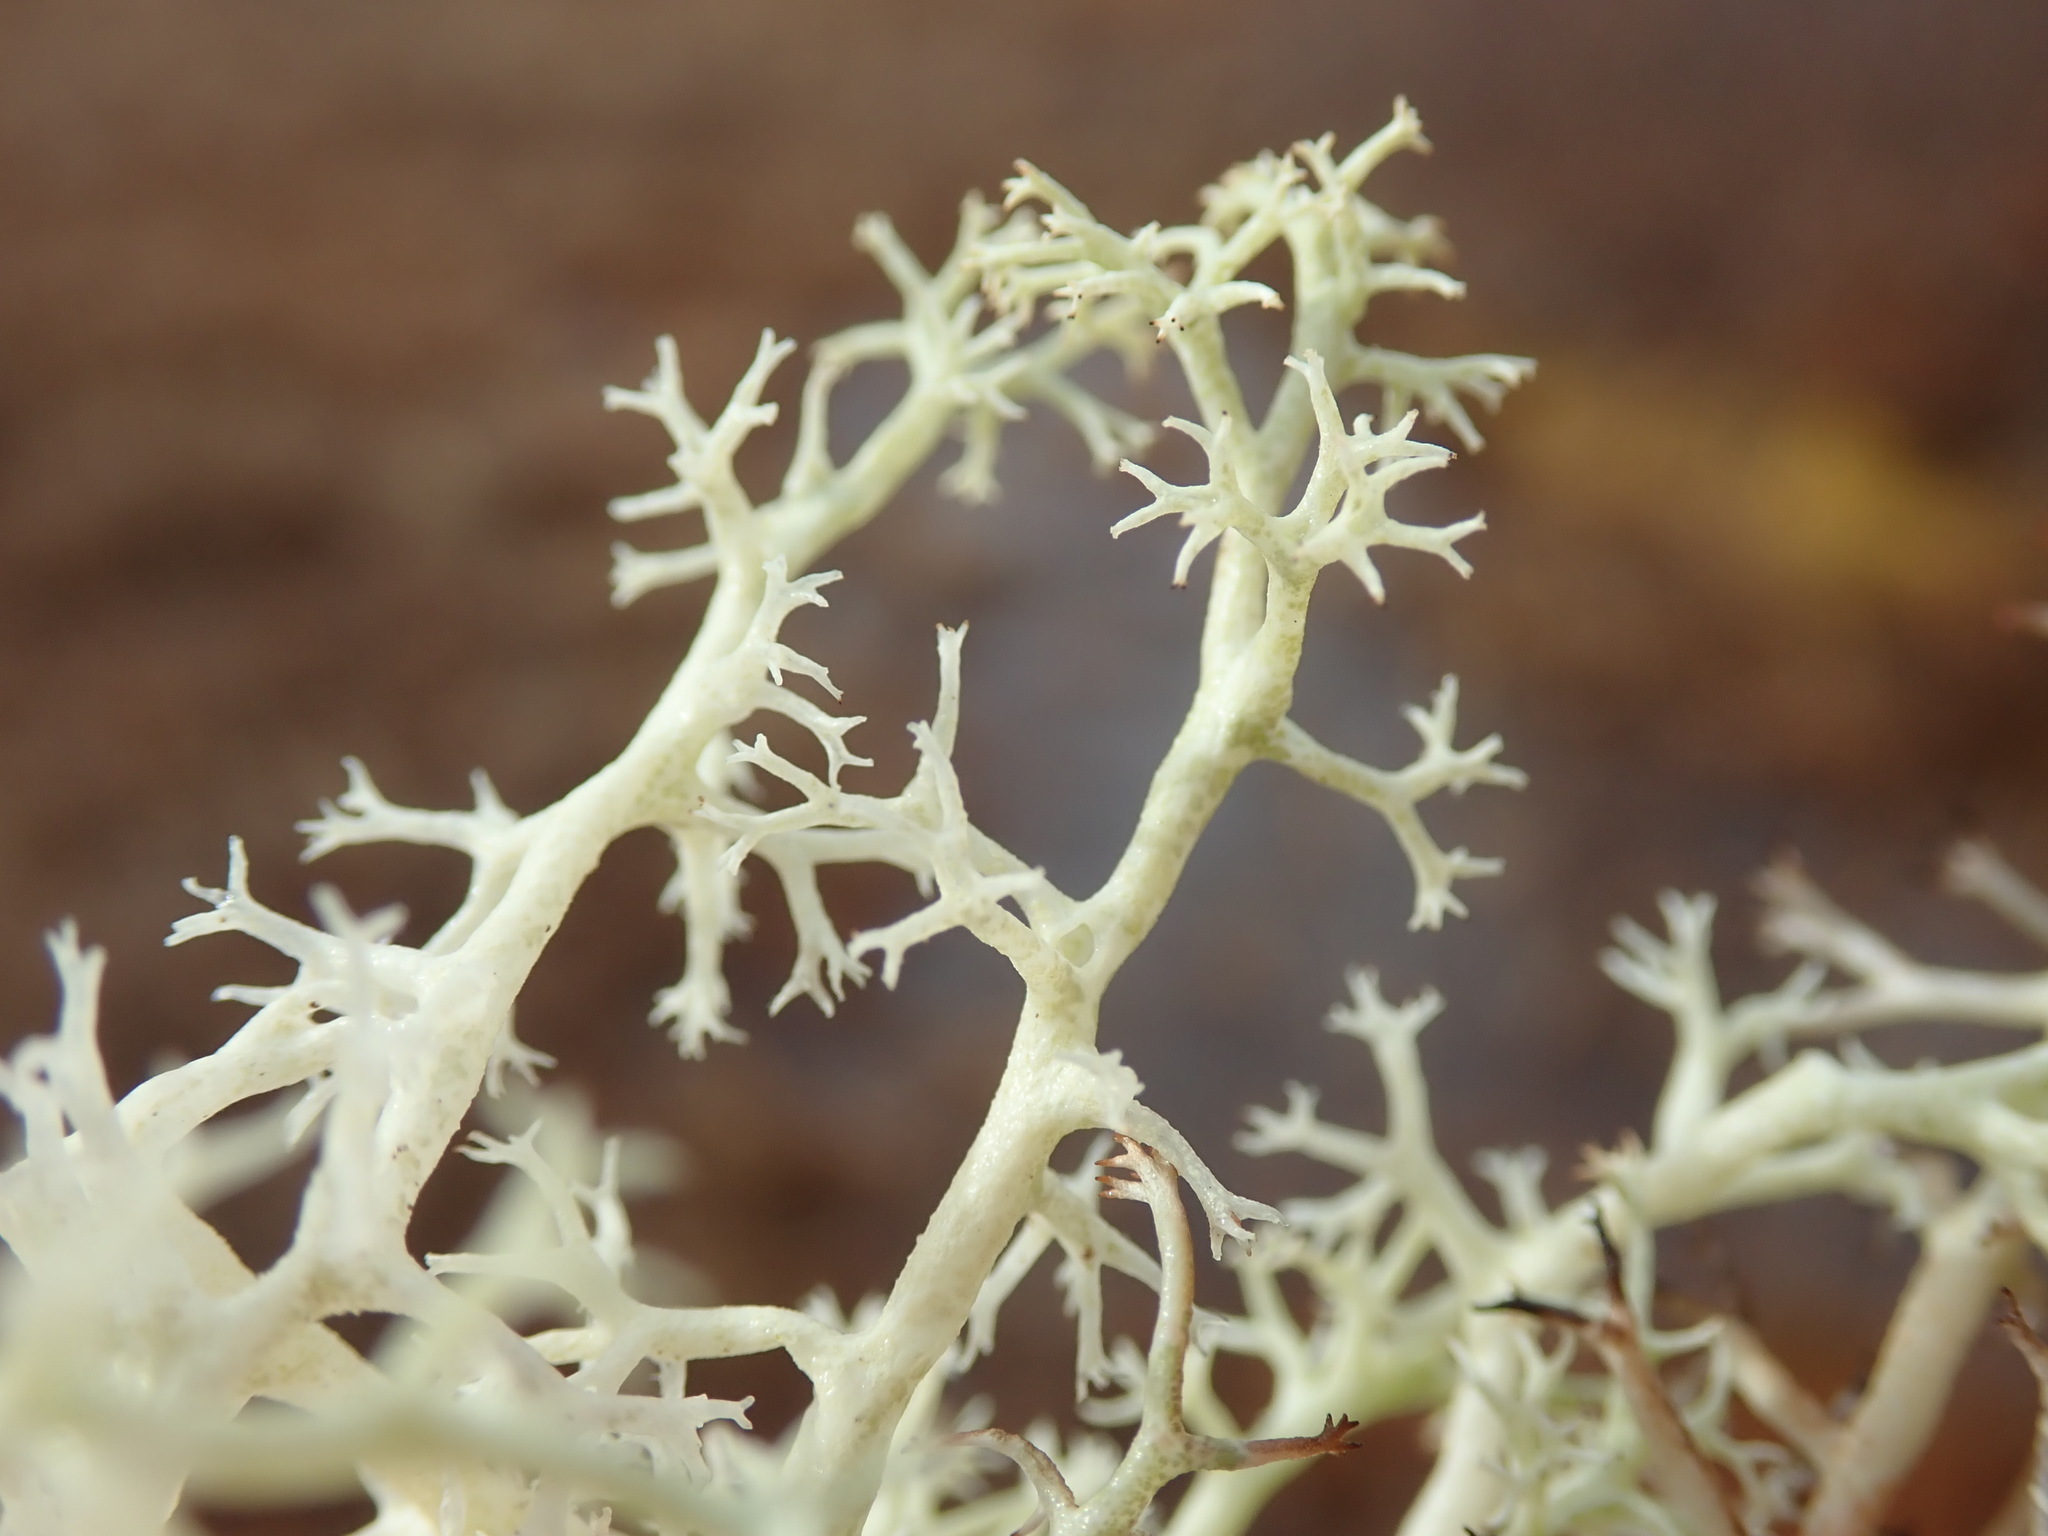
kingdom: Fungi
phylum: Ascomycota
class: Lecanoromycetes
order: Lecanorales
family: Cladoniaceae
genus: Cladonia
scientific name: Cladonia mitis
